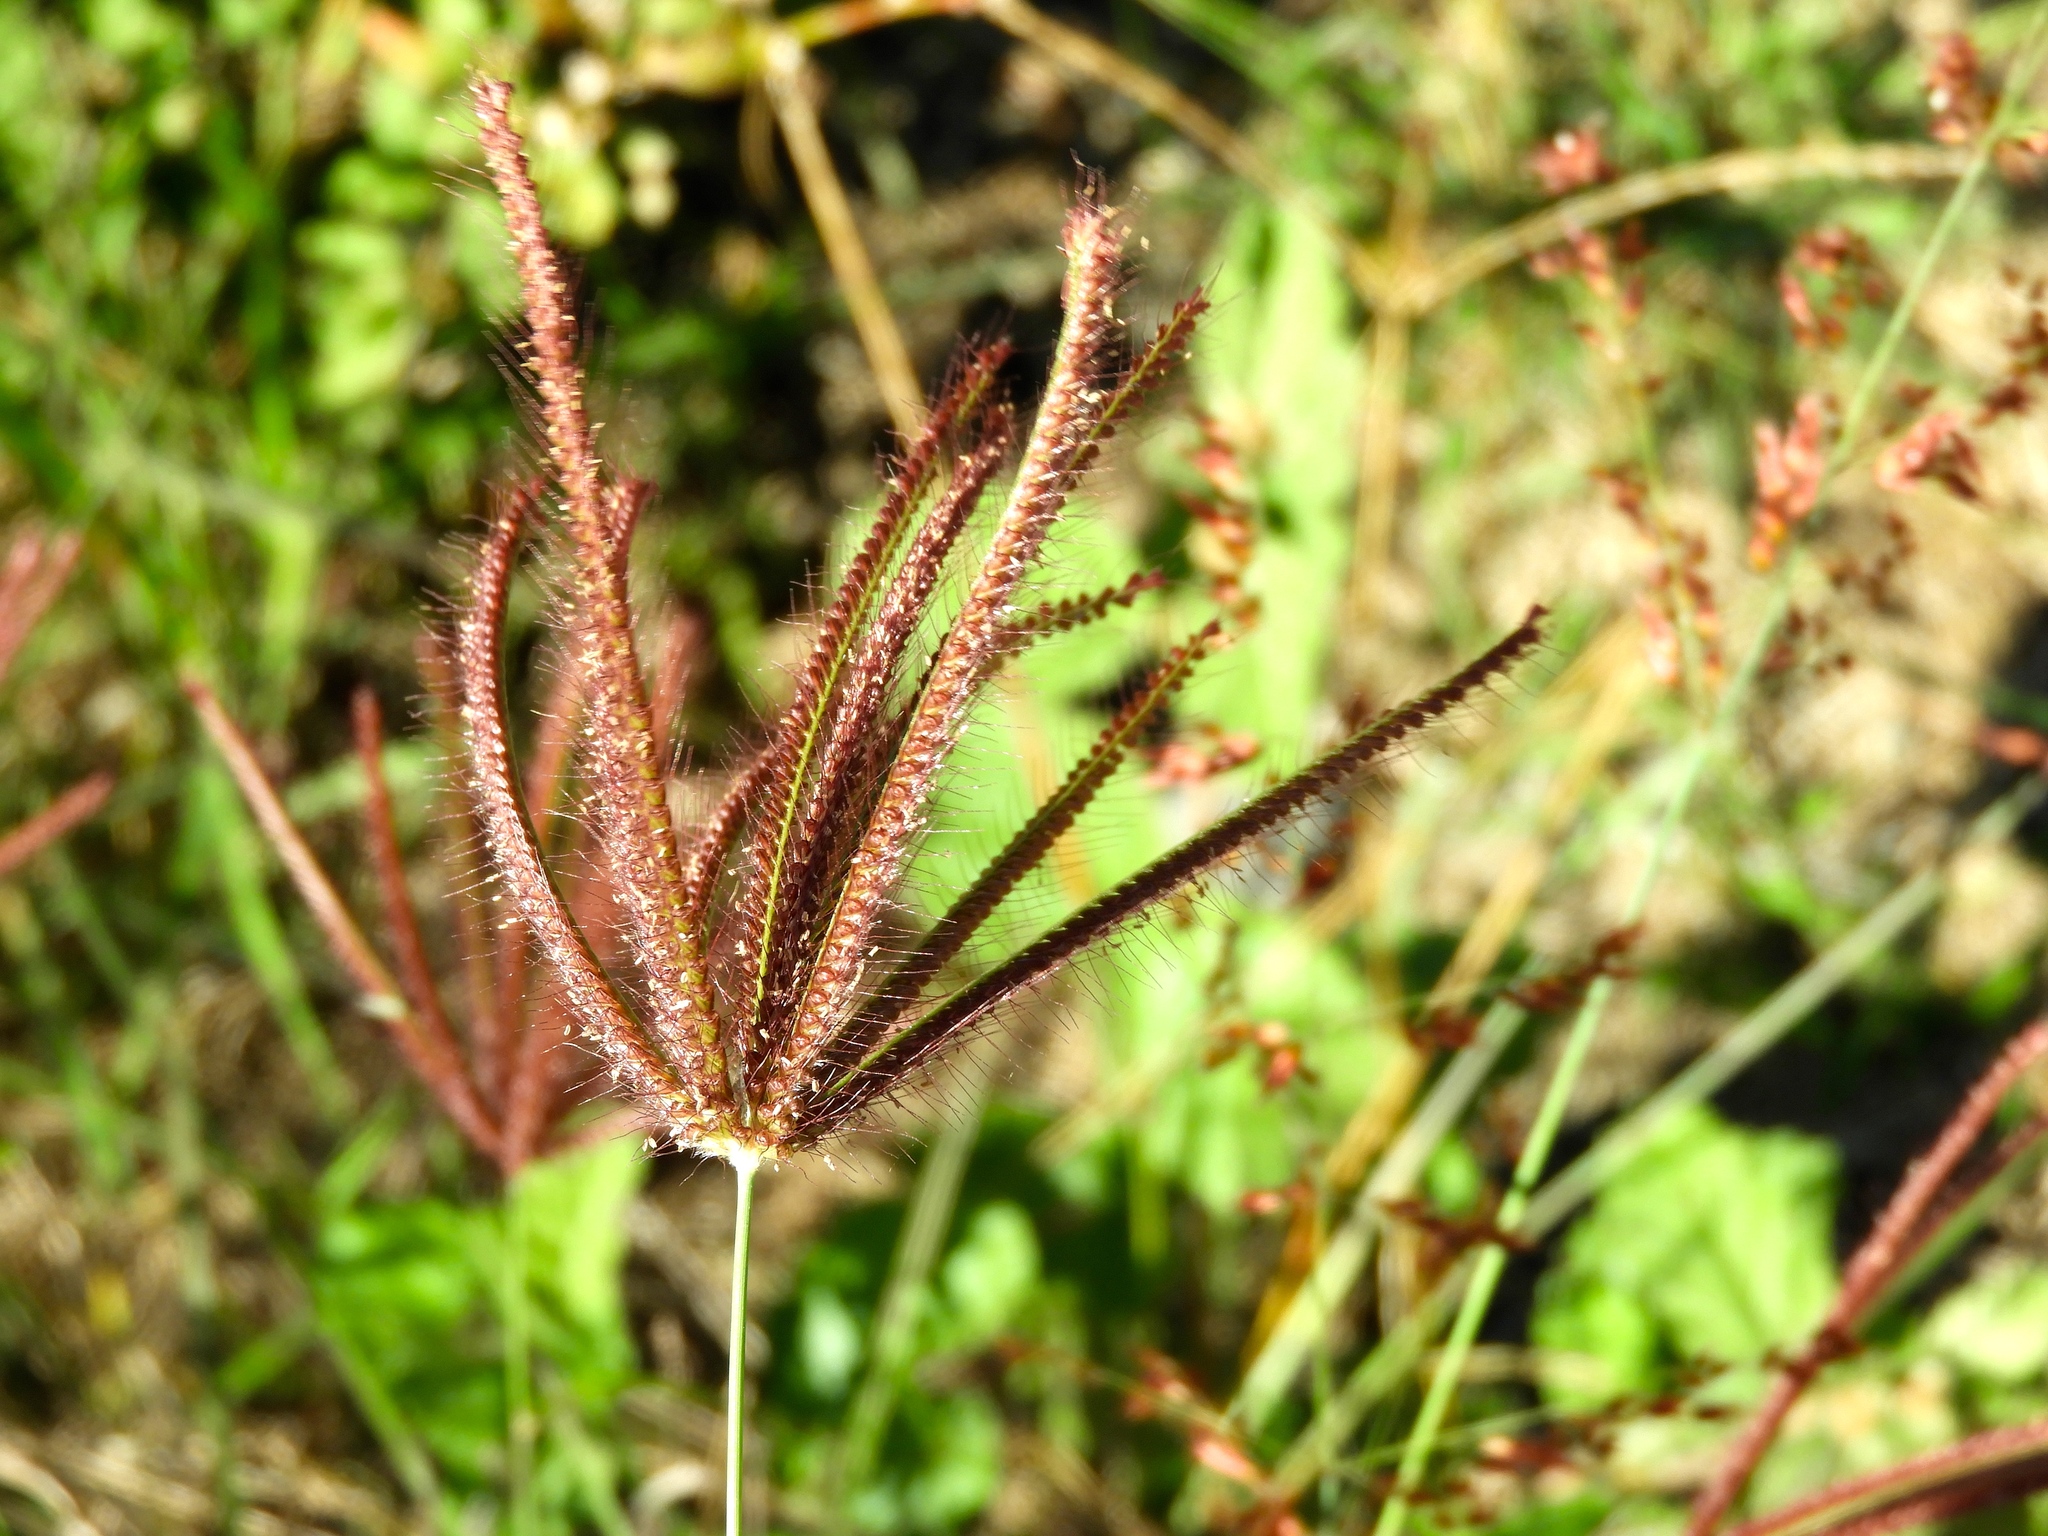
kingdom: Plantae
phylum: Tracheophyta
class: Liliopsida
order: Poales
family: Poaceae
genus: Chloris
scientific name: Chloris
